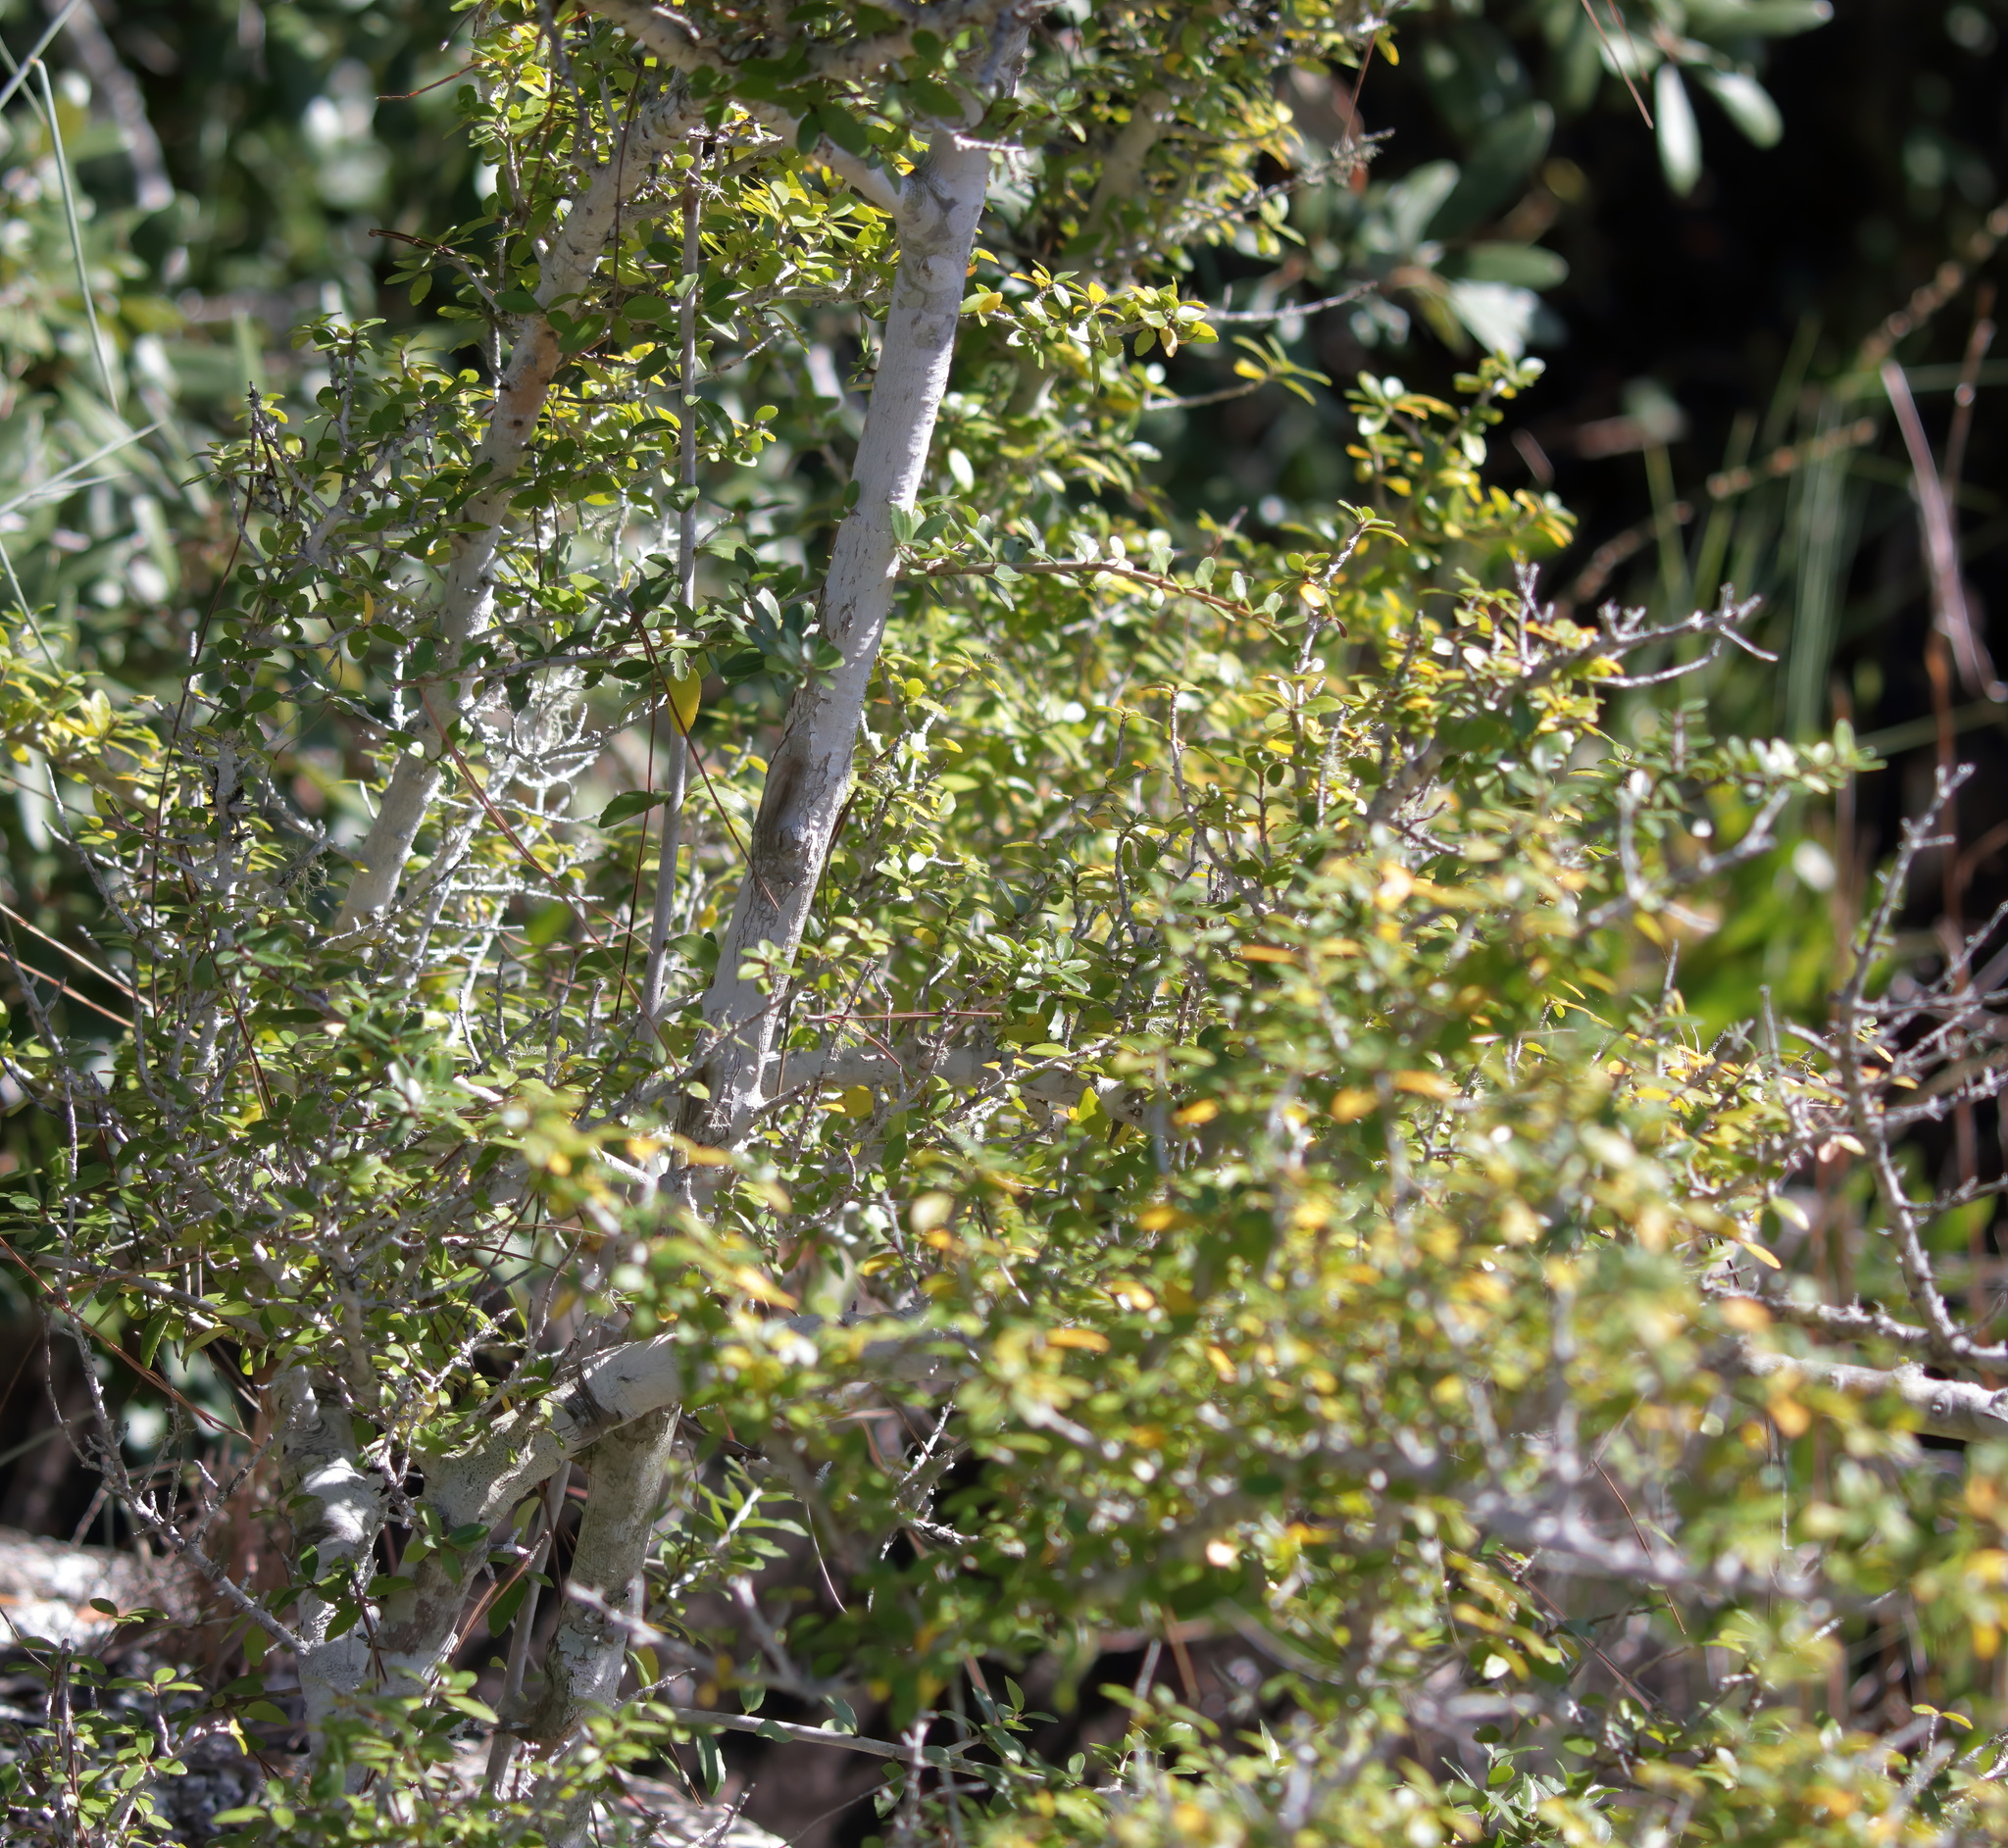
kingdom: Plantae
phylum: Tracheophyta
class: Magnoliopsida
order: Aquifoliales
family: Aquifoliaceae
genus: Ilex
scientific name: Ilex vomitoria
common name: Yaupon holly
